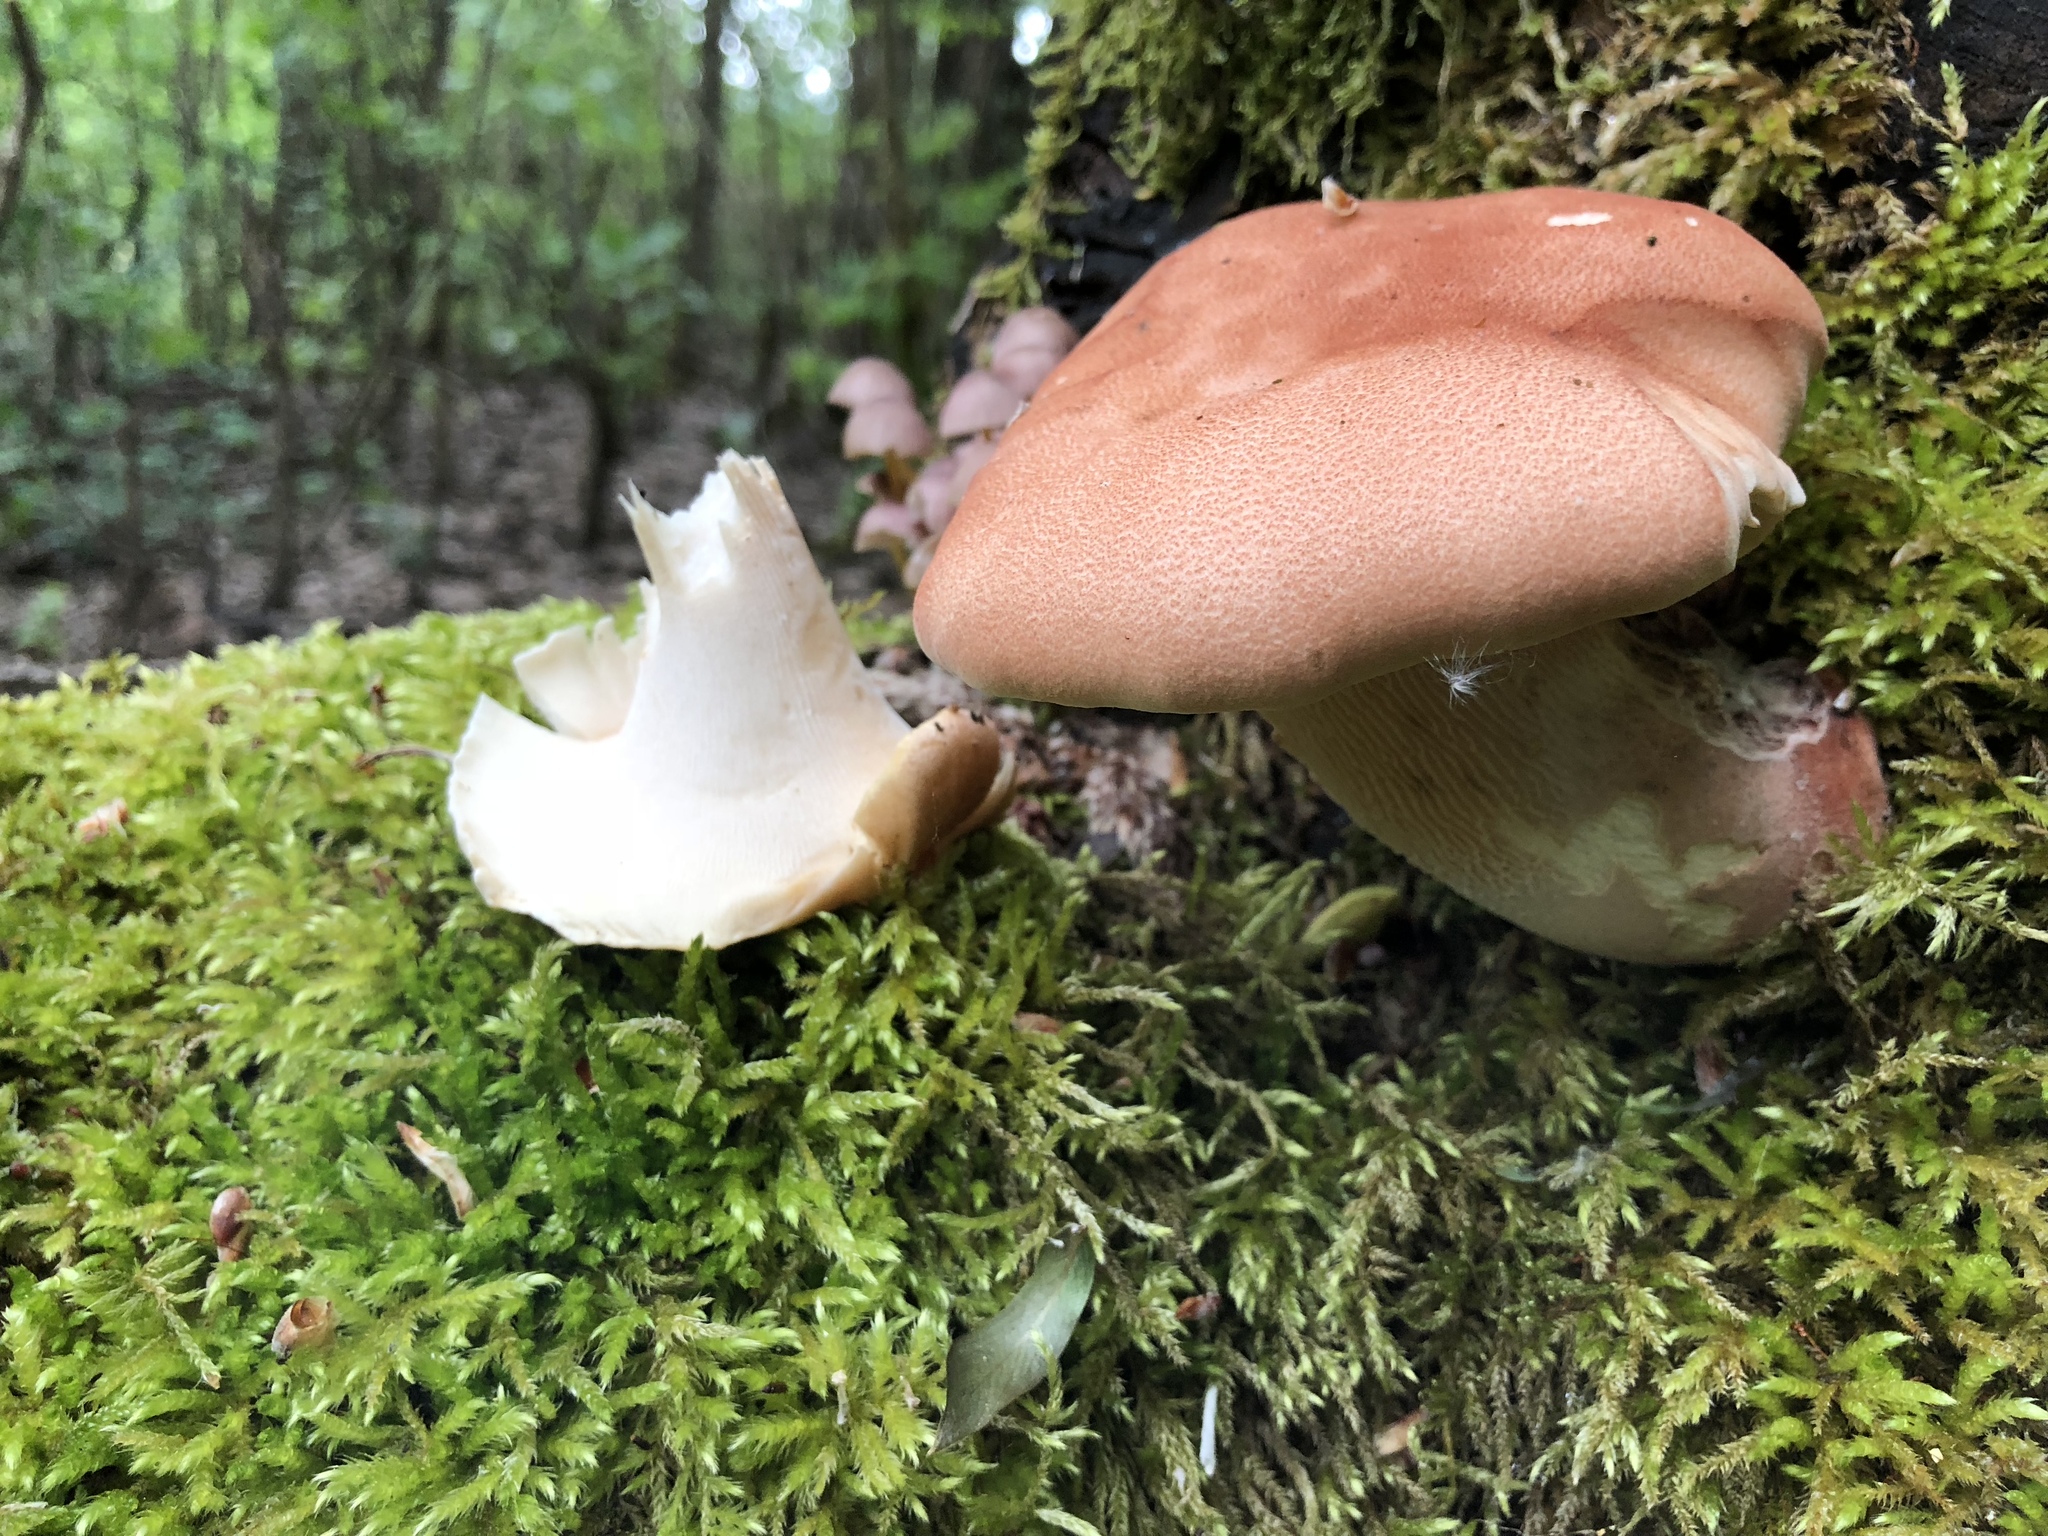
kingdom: Fungi
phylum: Basidiomycota
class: Agaricomycetes
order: Gloeophyllales
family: Gloeophyllaceae
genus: Neolentinus
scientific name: Neolentinus cyathiformis
